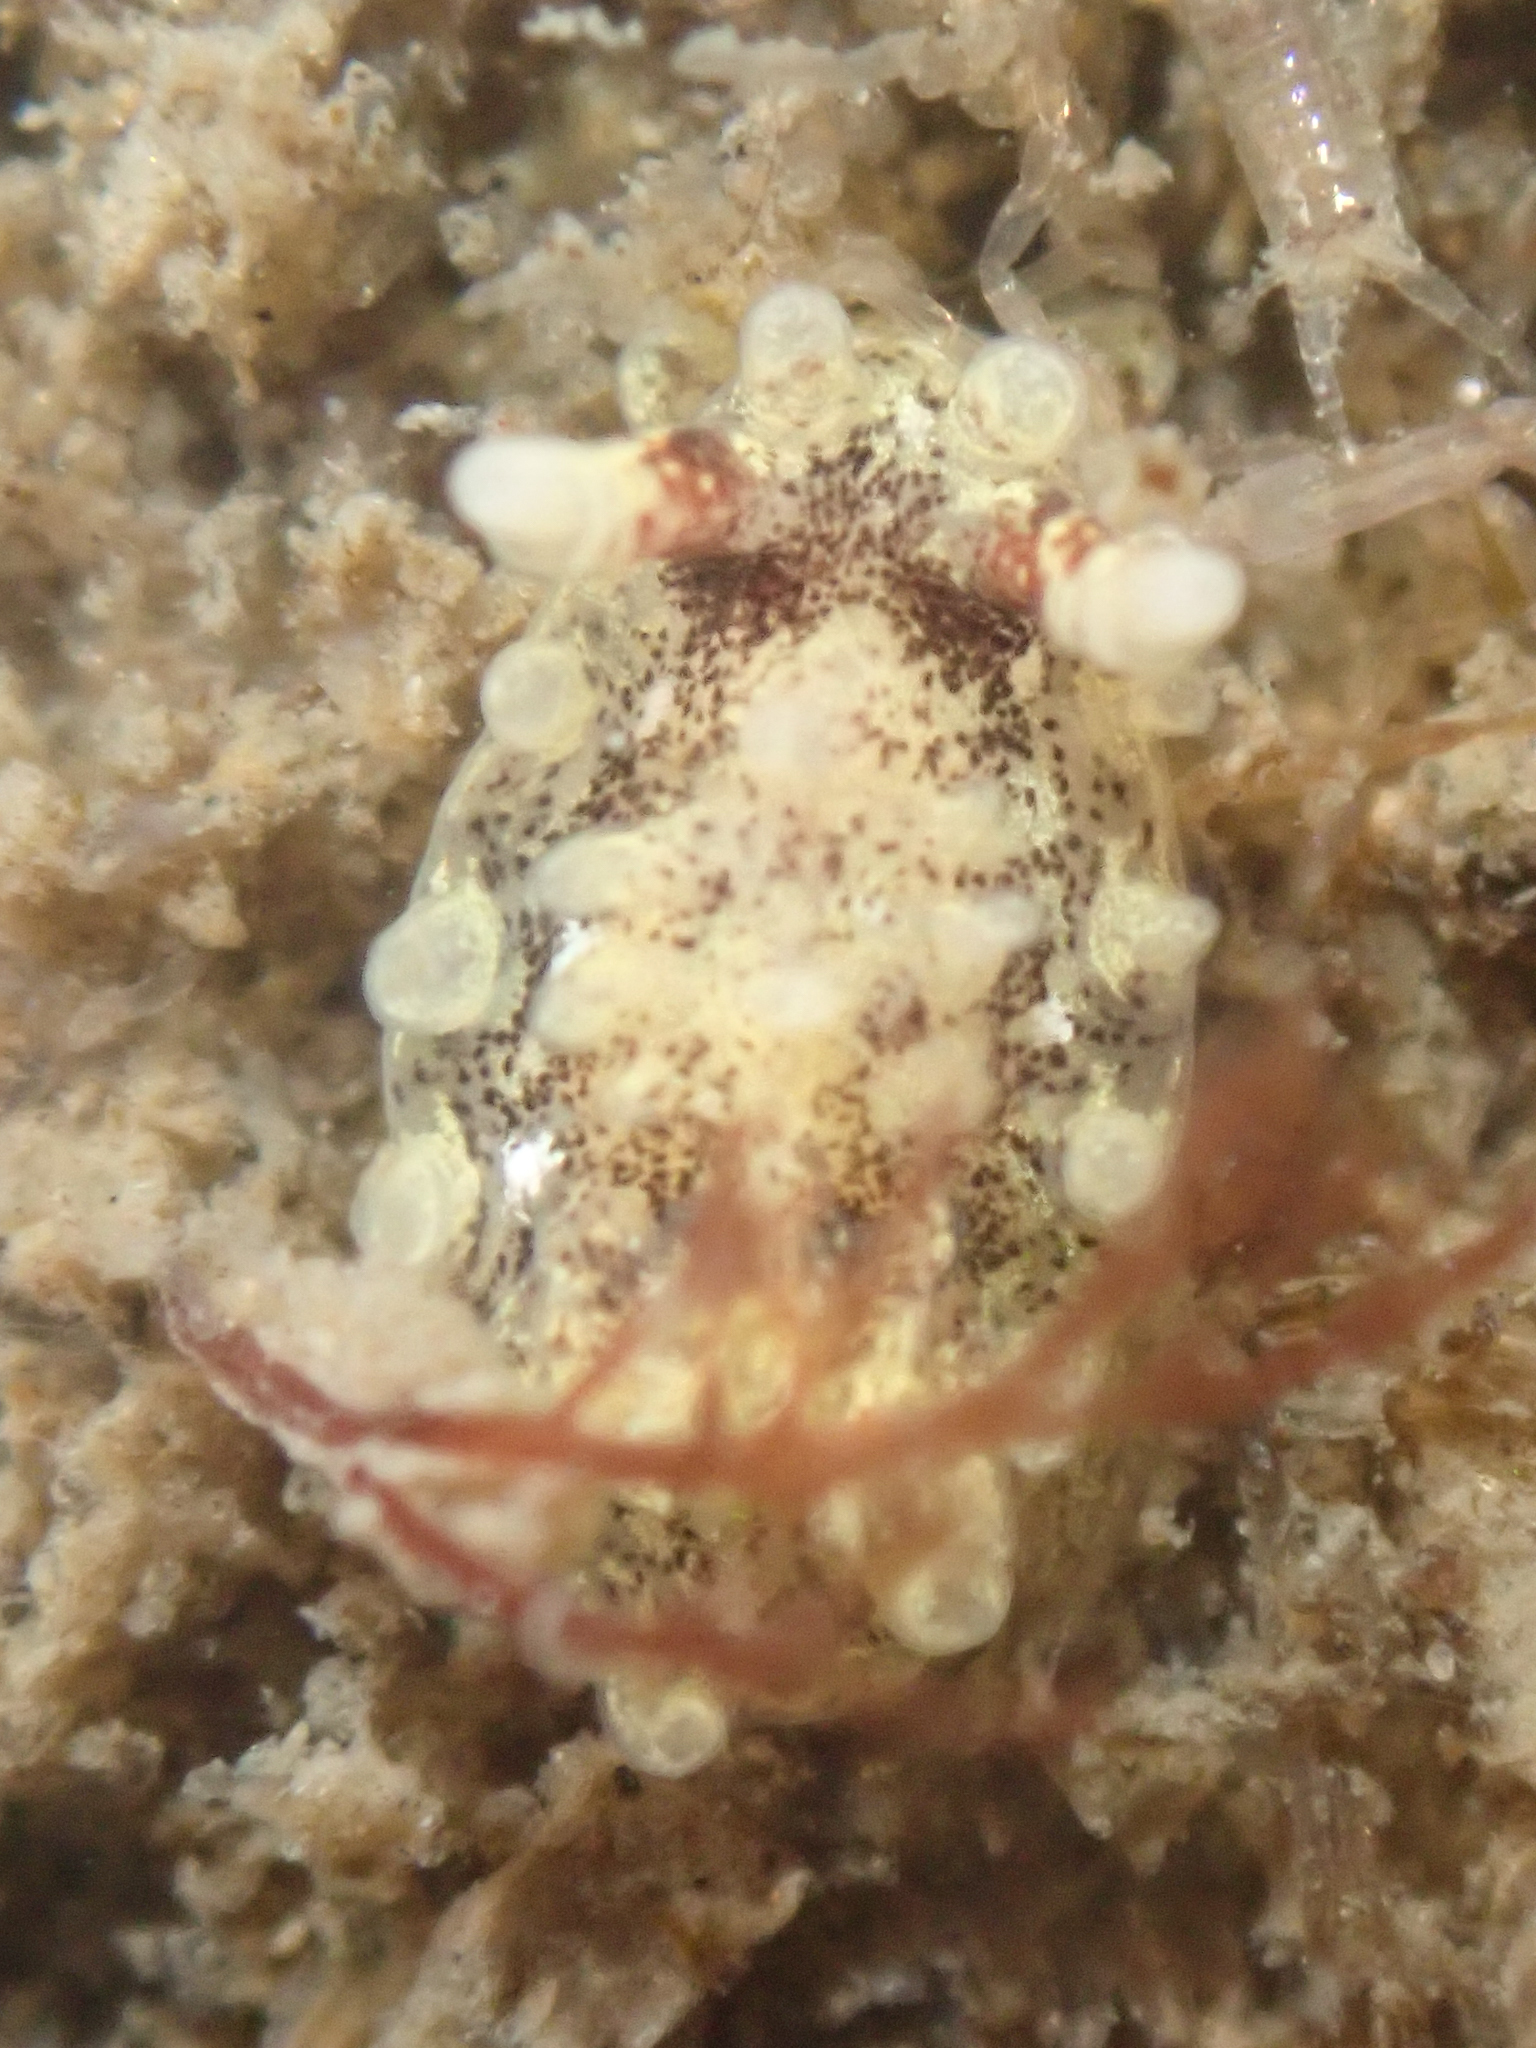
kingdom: Animalia
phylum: Mollusca
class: Gastropoda
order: Nudibranchia
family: Goniodorididae
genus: Okenia
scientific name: Okenia
